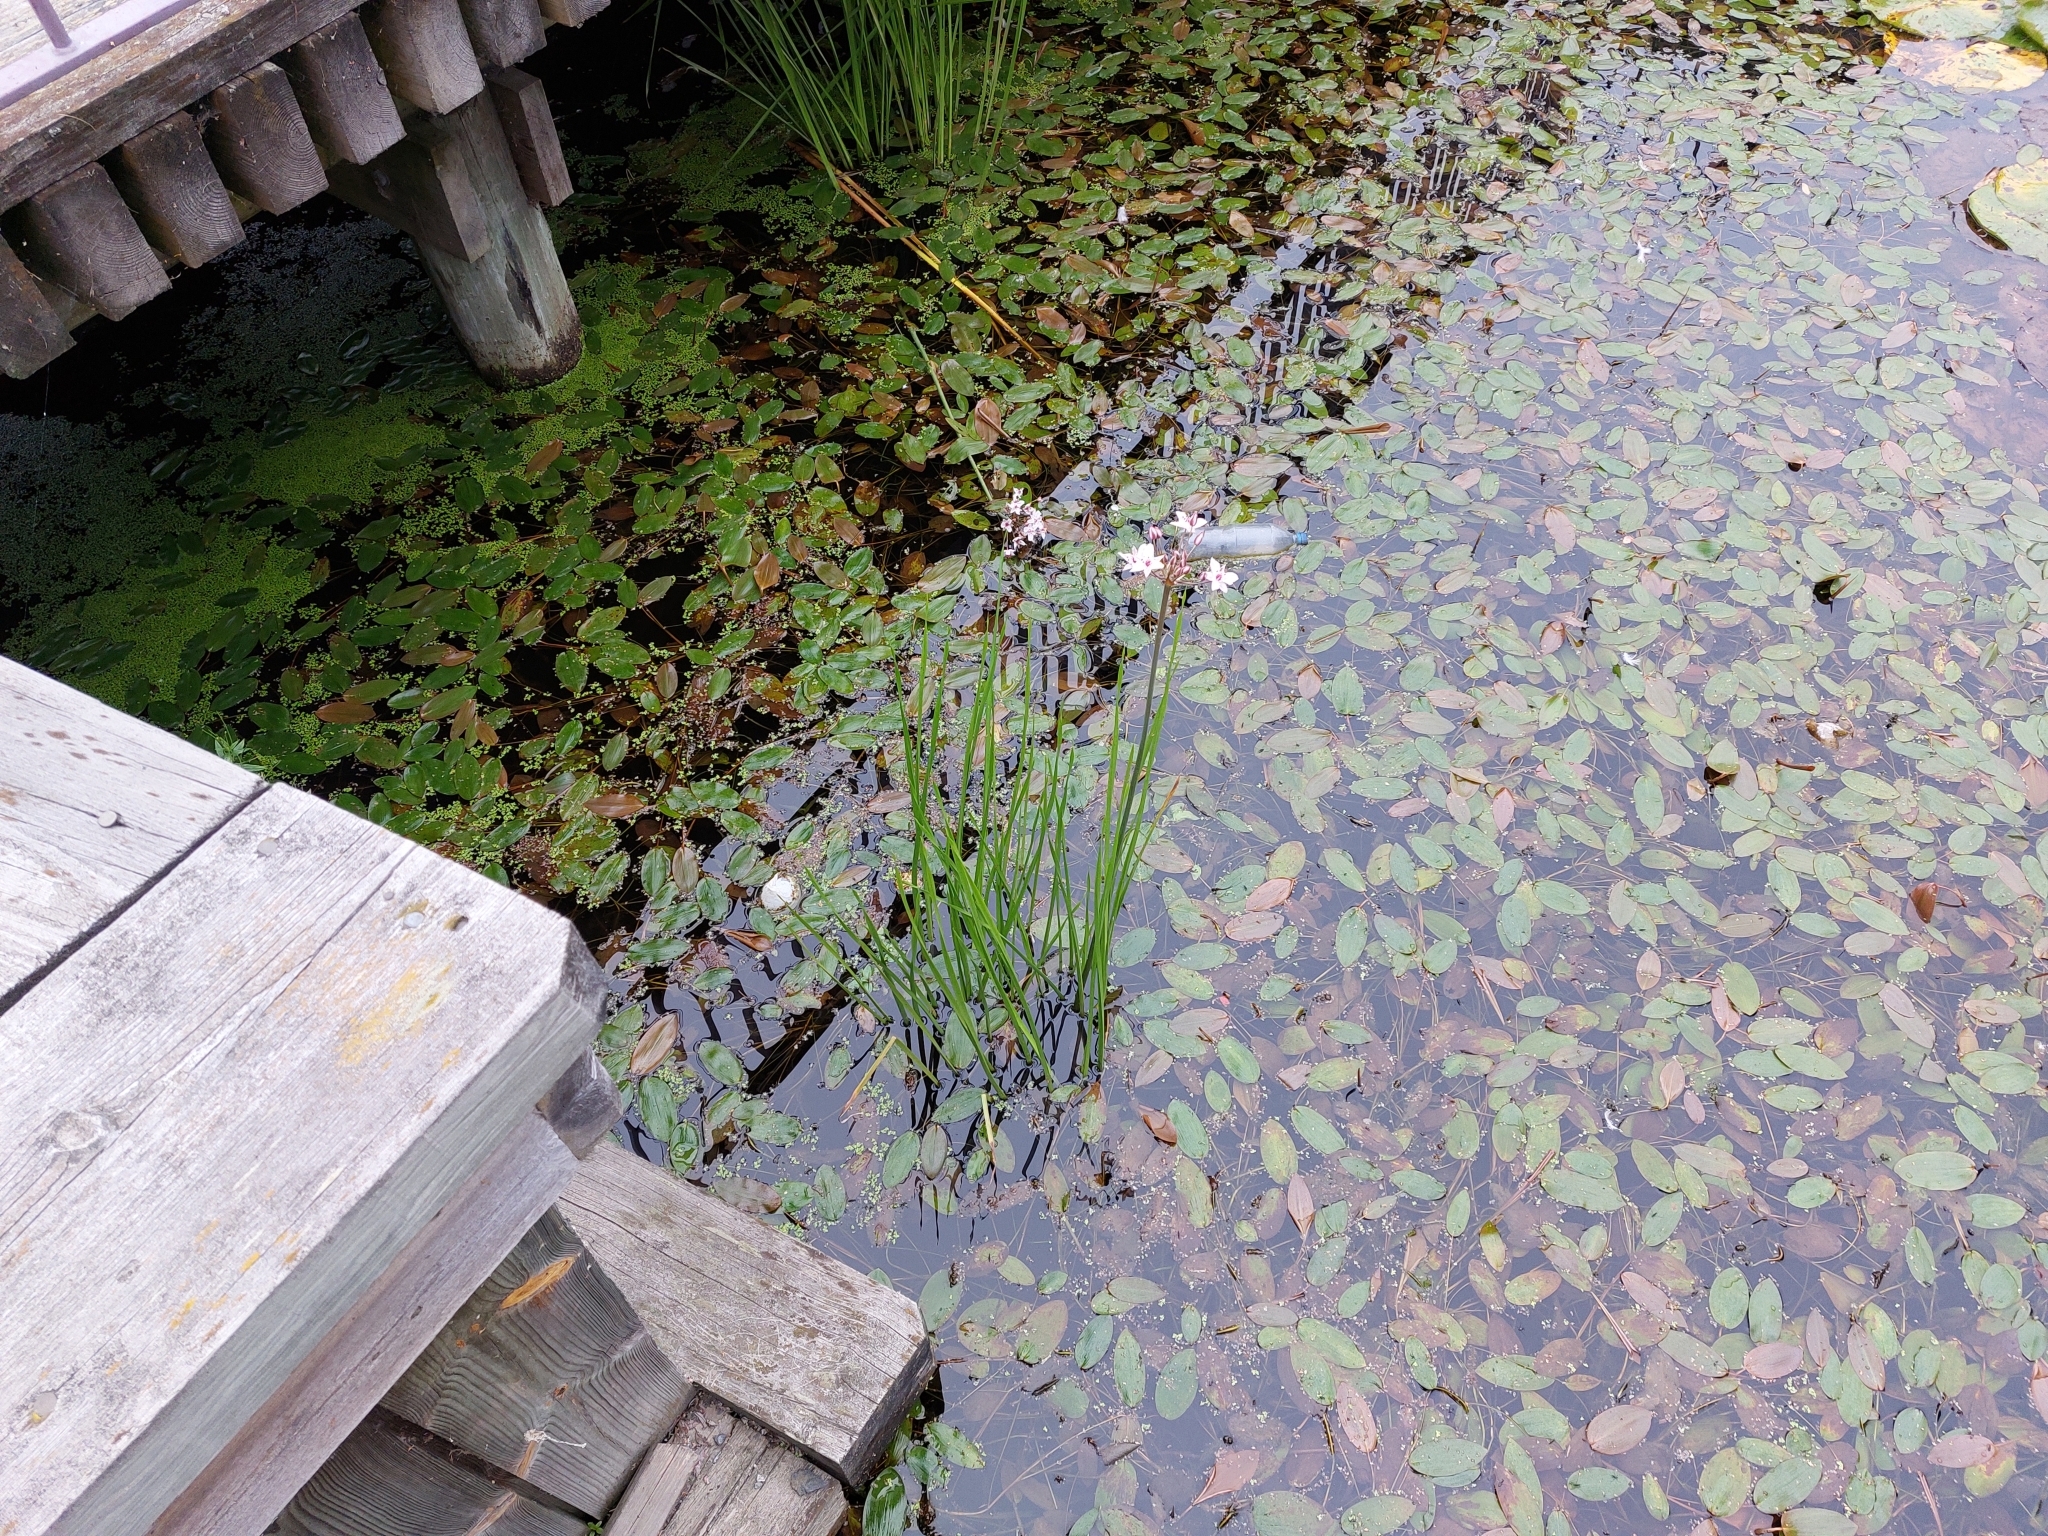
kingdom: Plantae
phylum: Tracheophyta
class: Liliopsida
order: Alismatales
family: Butomaceae
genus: Butomus
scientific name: Butomus umbellatus
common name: Flowering-rush
